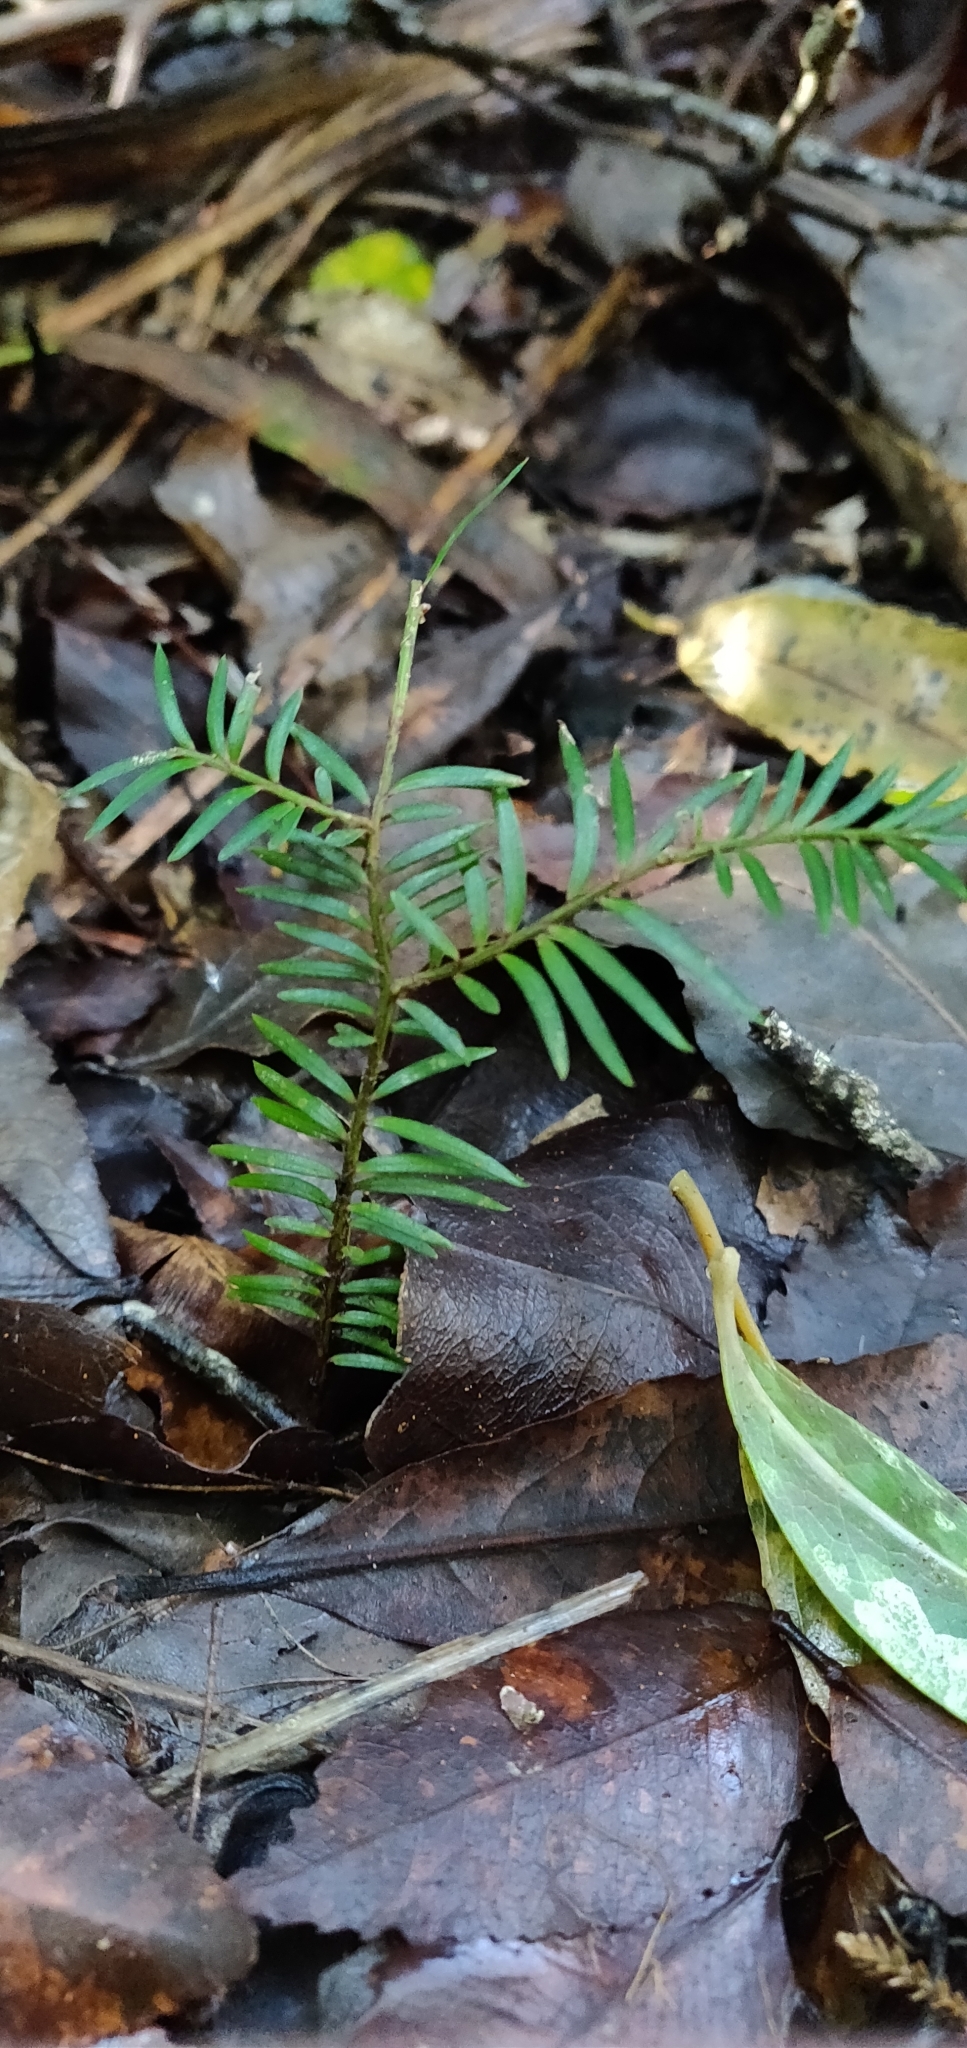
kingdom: Plantae
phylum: Tracheophyta
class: Pinopsida
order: Pinales
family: Podocarpaceae
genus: Prumnopitys
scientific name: Prumnopitys ferruginea
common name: Brown pine
